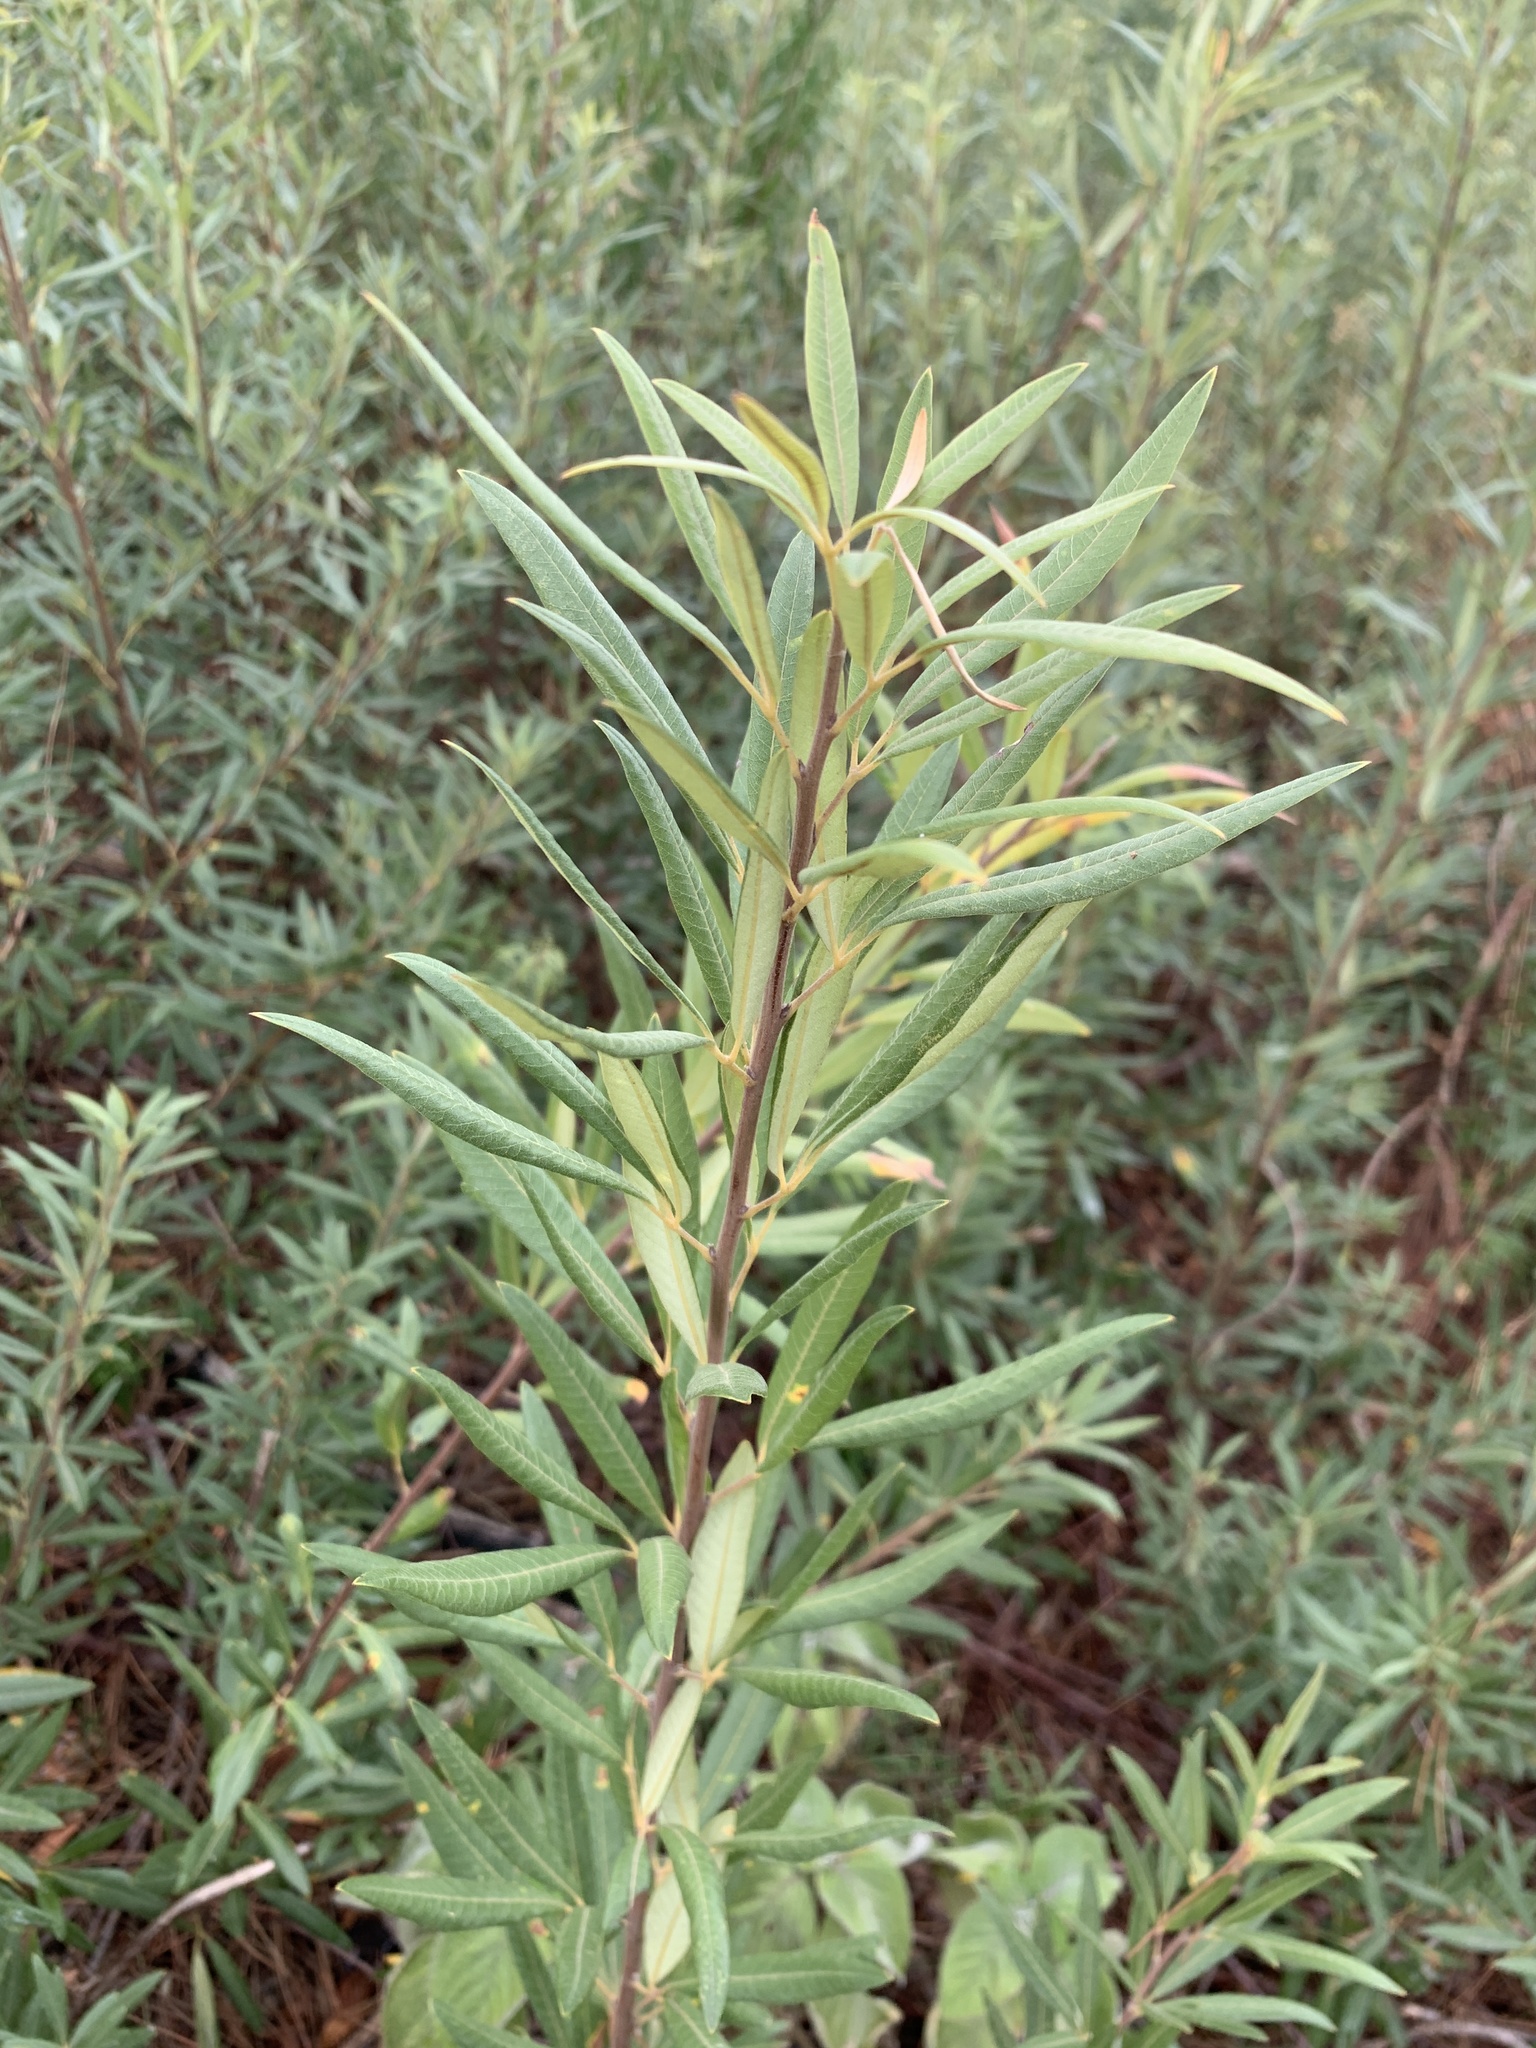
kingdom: Plantae
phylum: Tracheophyta
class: Magnoliopsida
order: Sapindales
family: Anacardiaceae
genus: Searsia
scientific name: Searsia angustifolia
